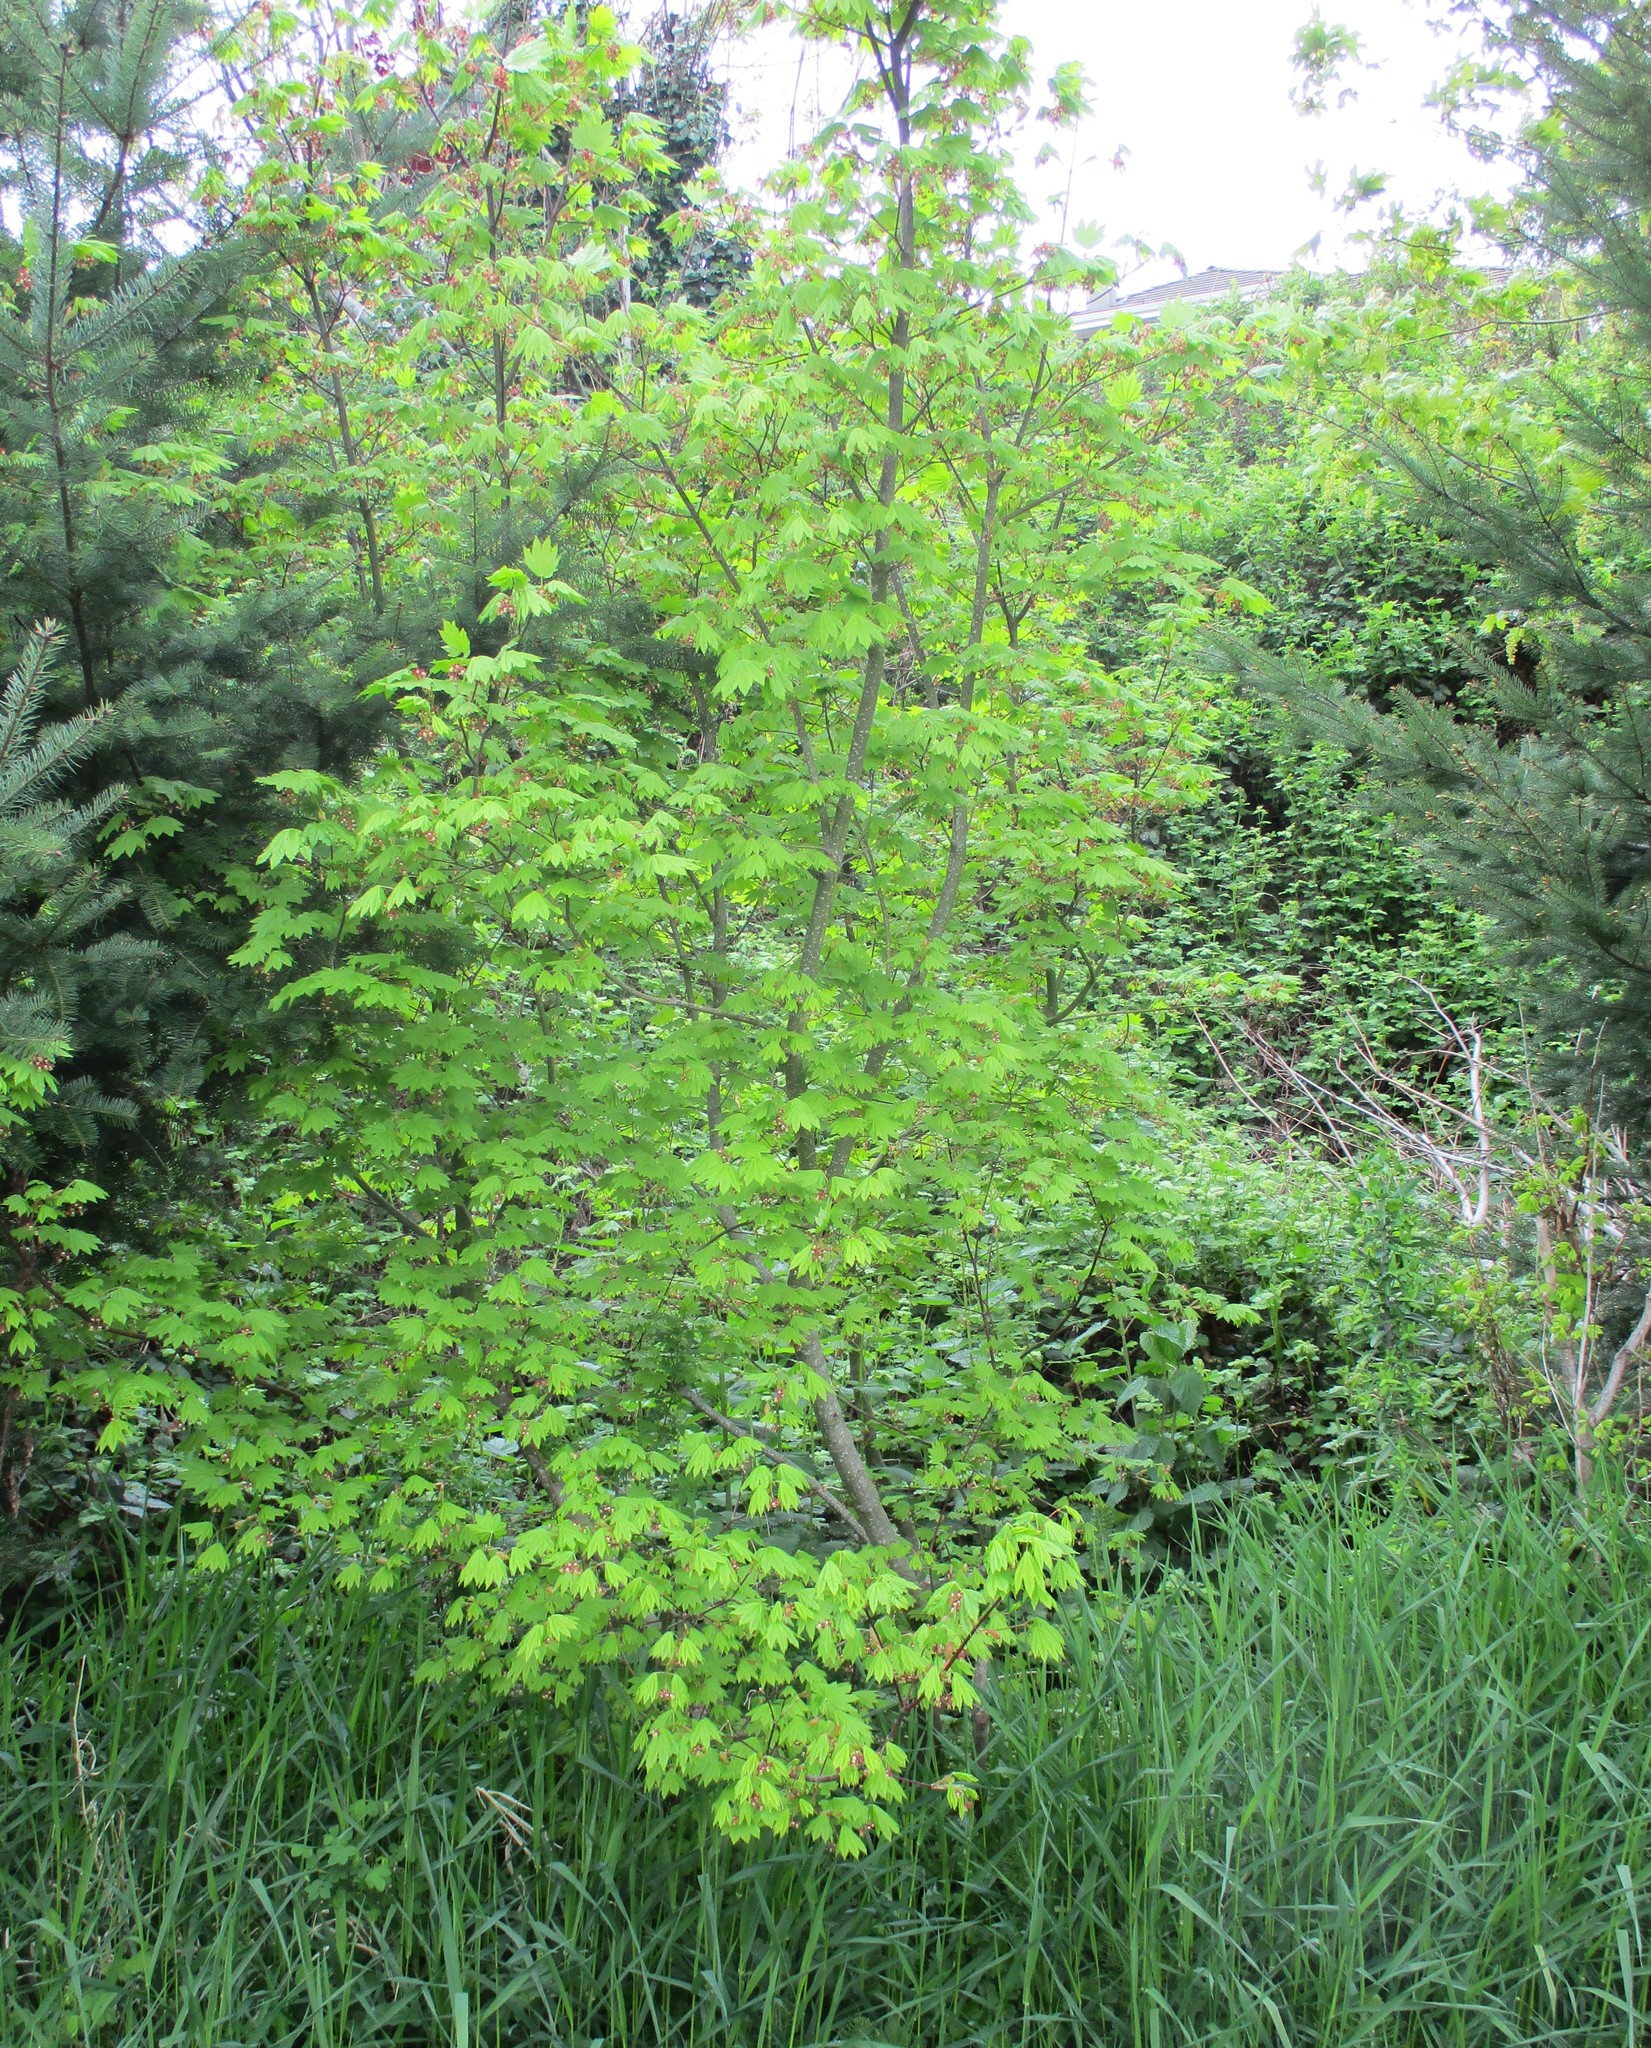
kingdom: Plantae
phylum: Tracheophyta
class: Magnoliopsida
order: Sapindales
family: Sapindaceae
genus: Acer
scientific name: Acer circinatum
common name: Vine maple
